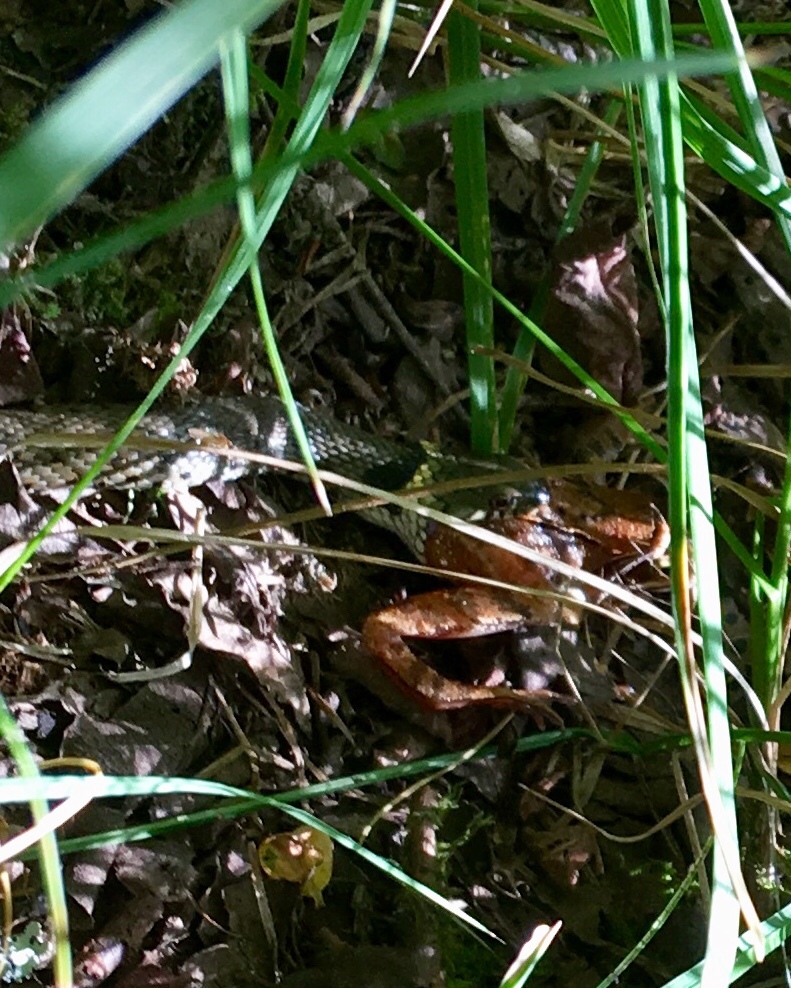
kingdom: Animalia
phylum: Chordata
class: Squamata
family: Colubridae
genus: Natrix
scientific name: Natrix helvetica
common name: Banded grass snake
